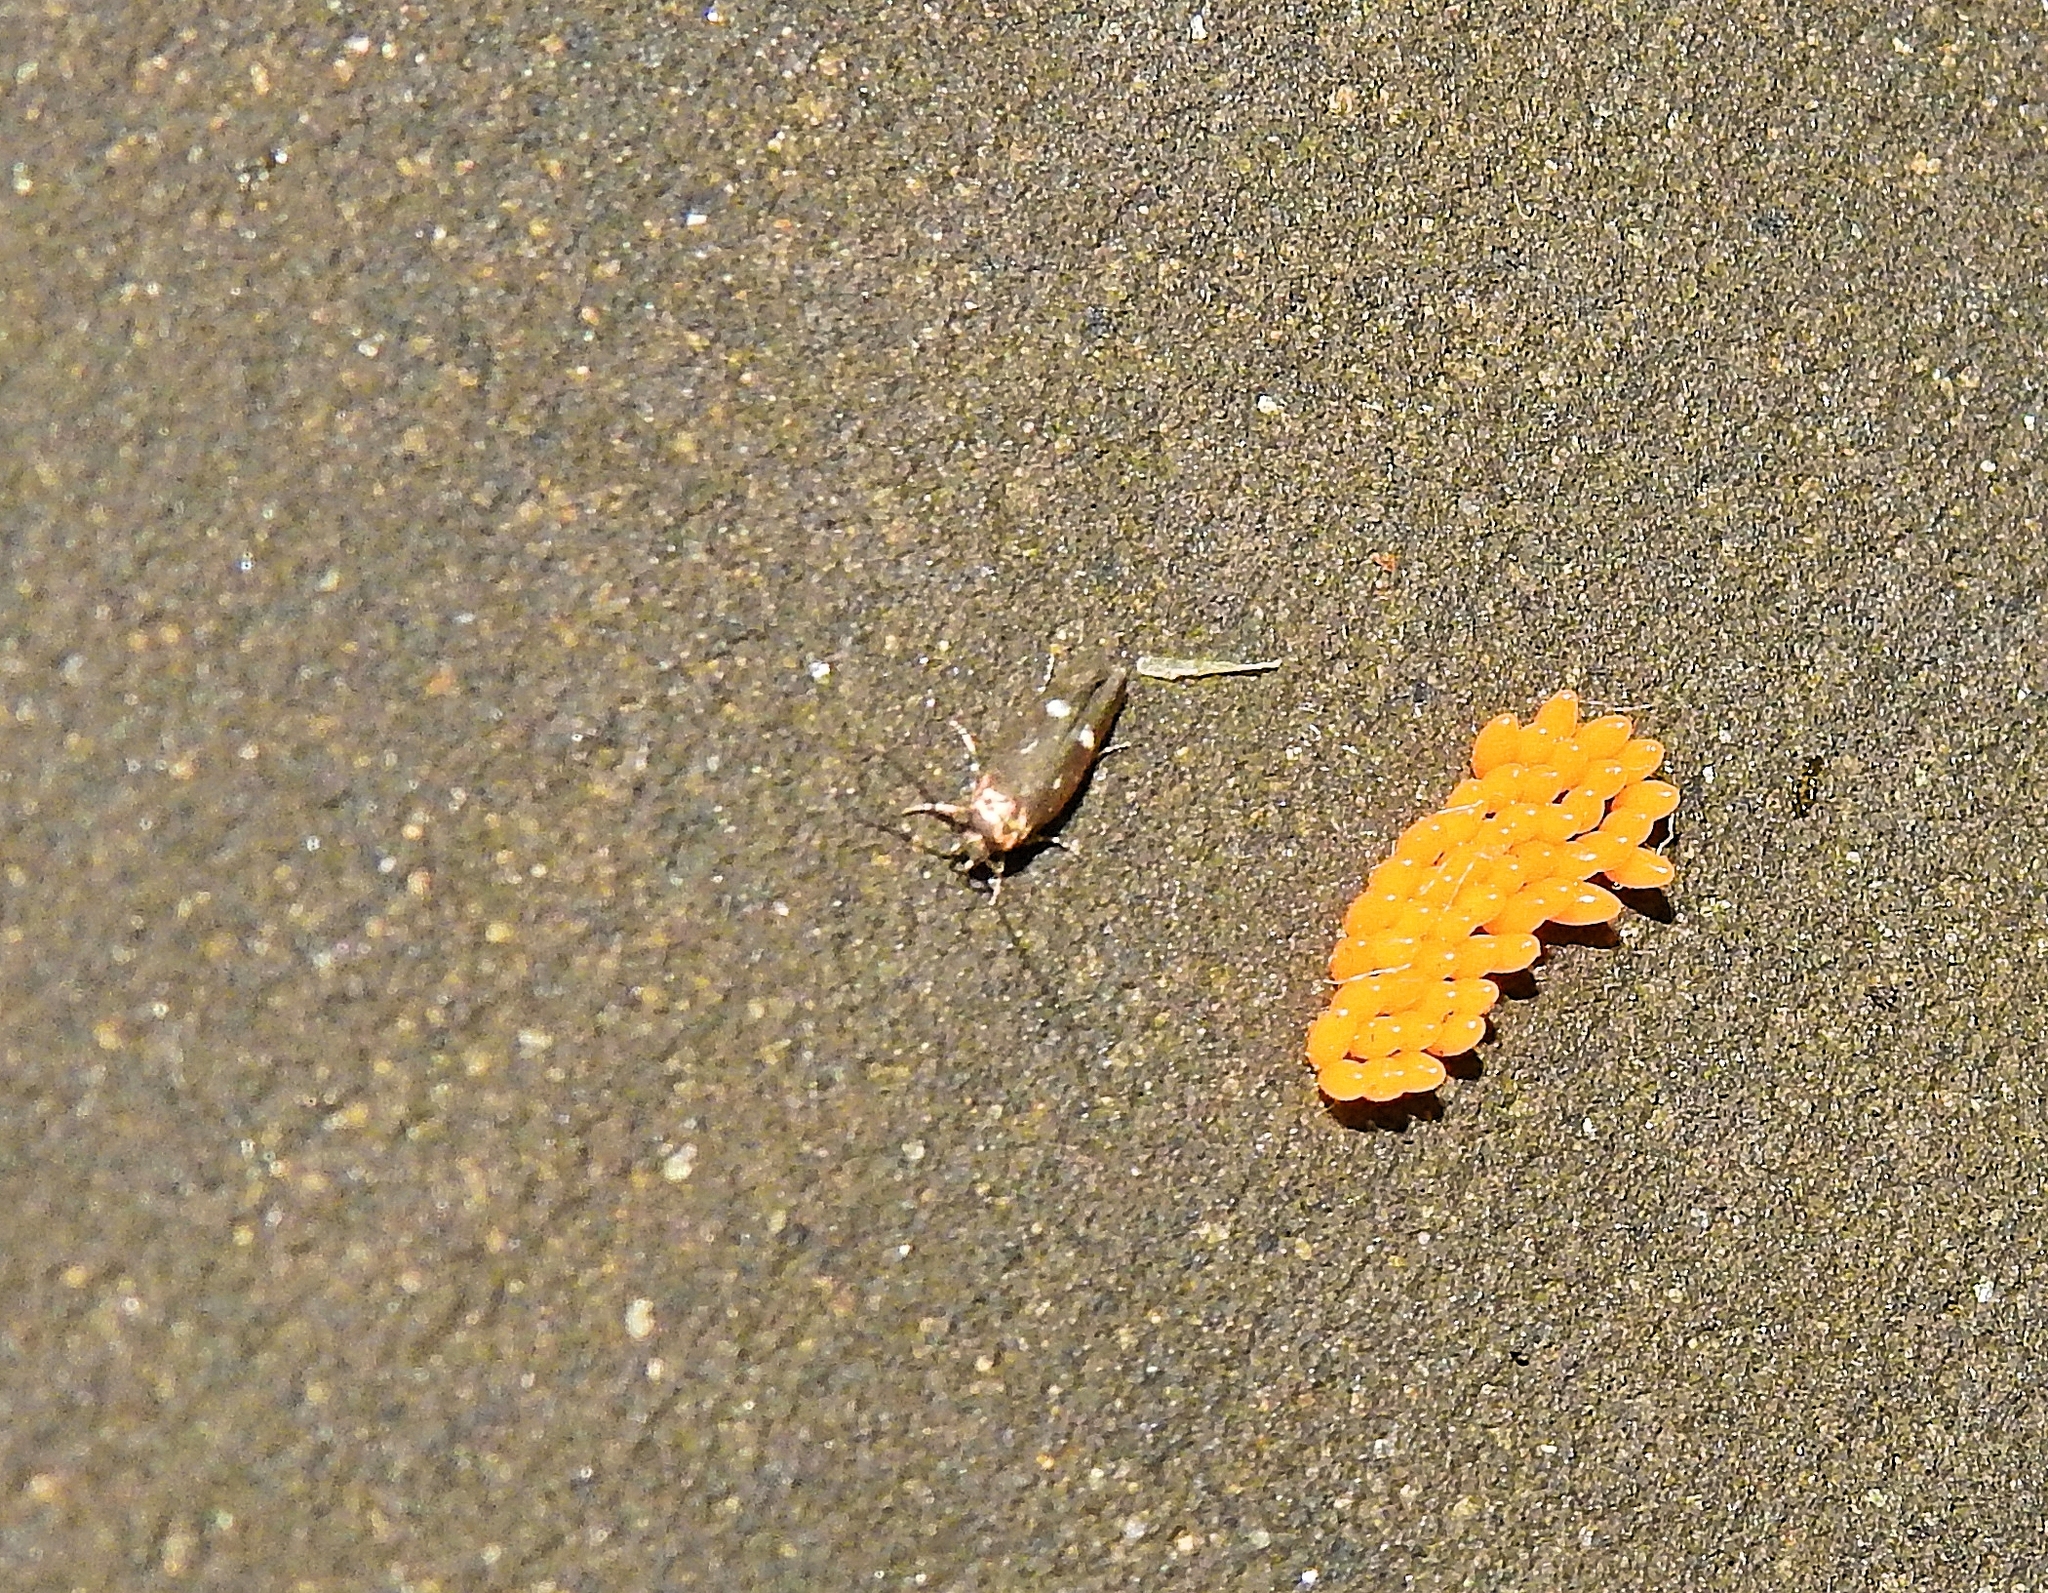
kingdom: Animalia
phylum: Arthropoda
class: Insecta
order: Lepidoptera
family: Momphidae
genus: Mompha
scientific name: Mompha langiella
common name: Clouded cosmet
